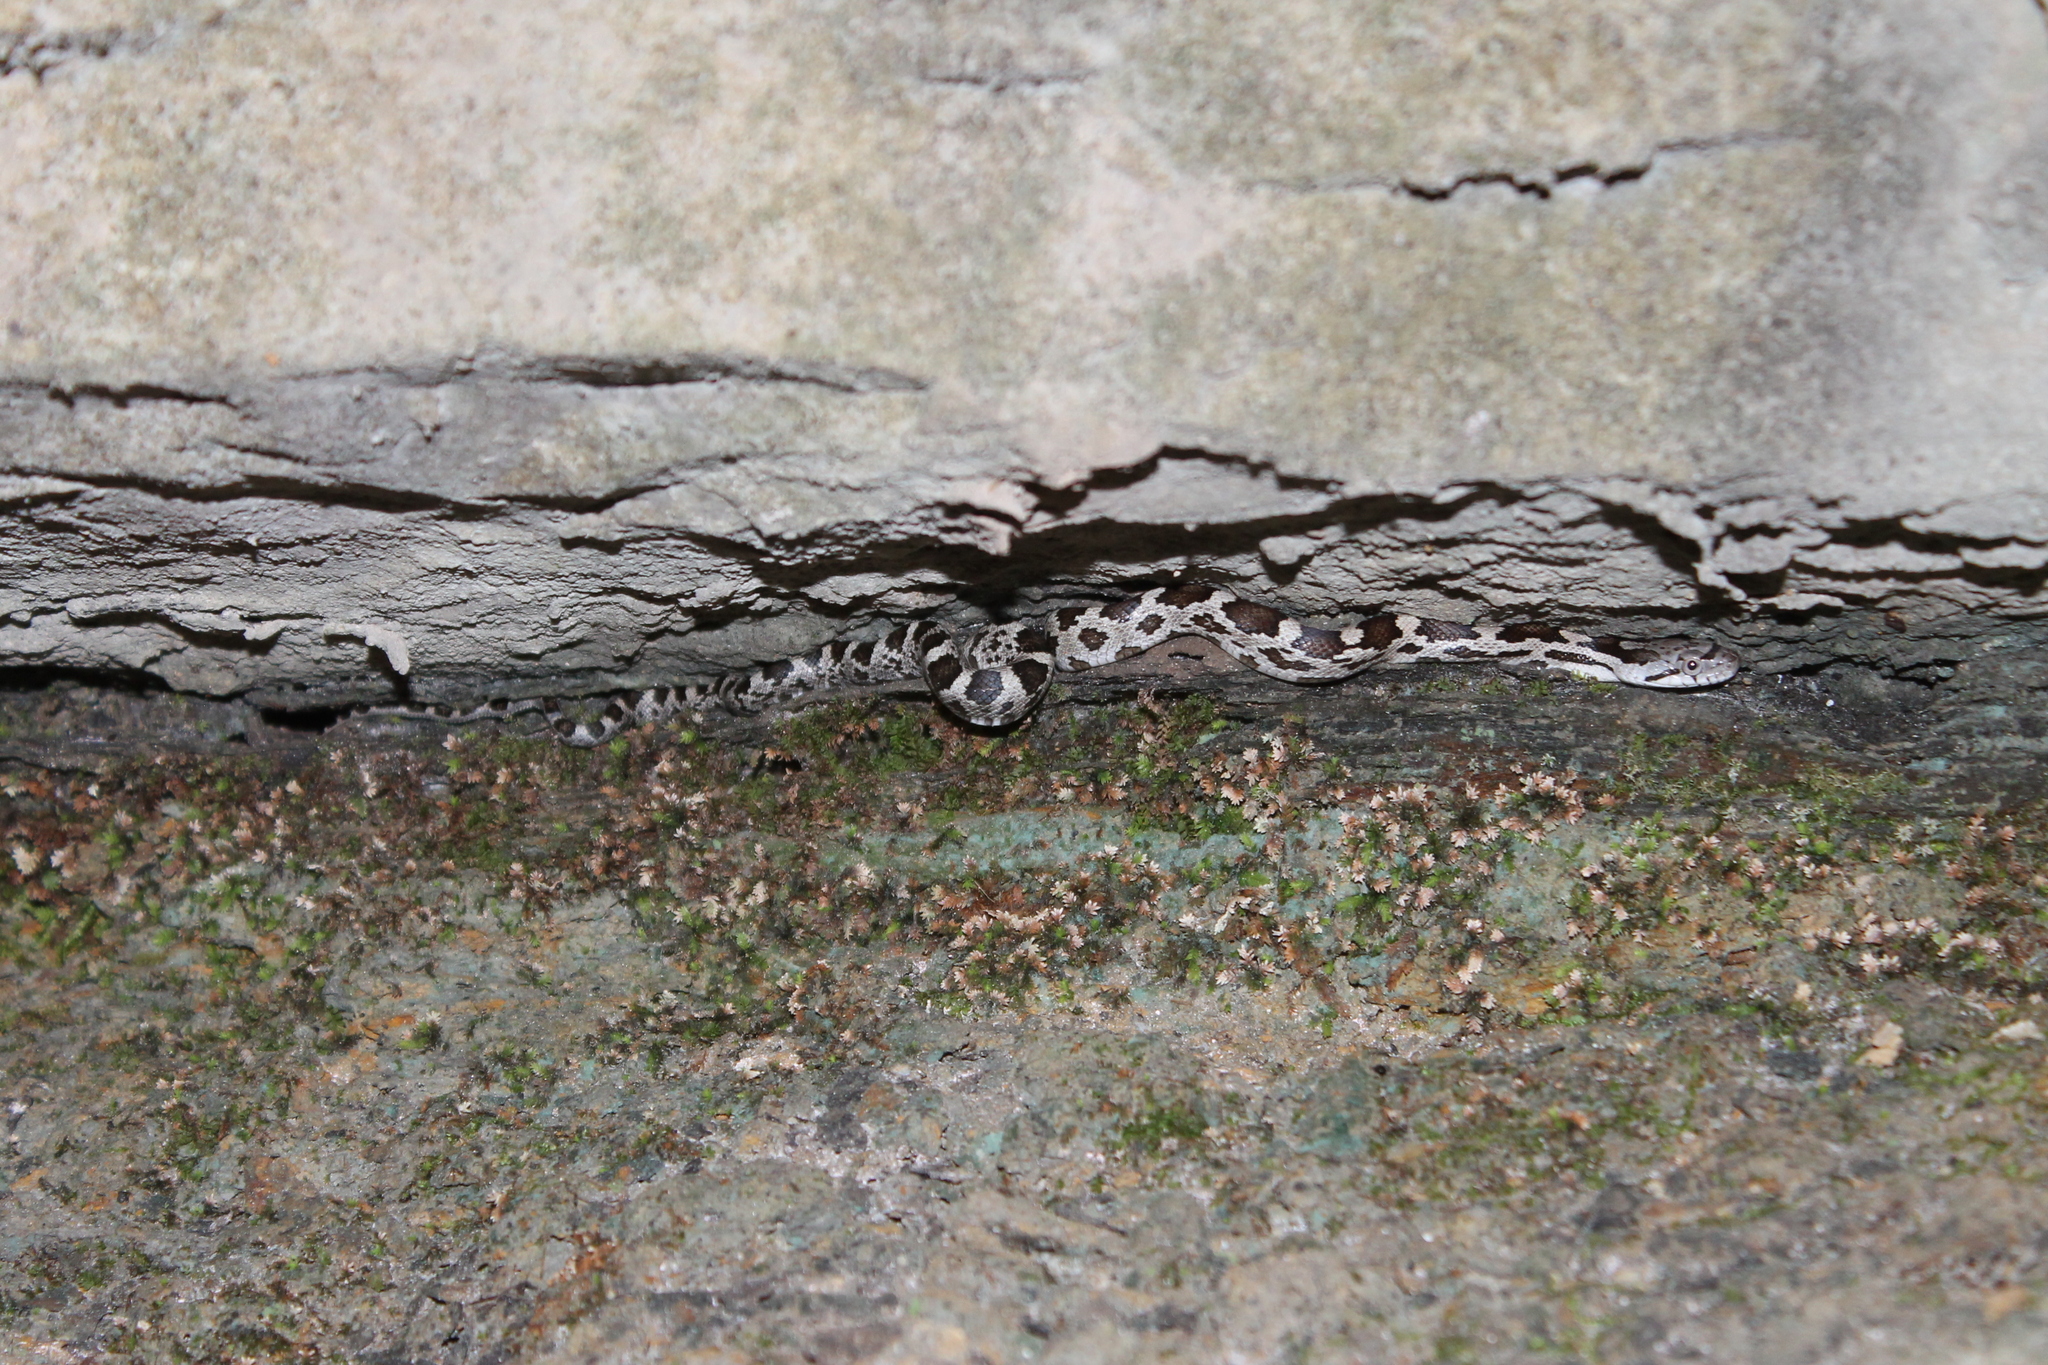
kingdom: Animalia
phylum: Chordata
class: Squamata
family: Colubridae
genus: Pantherophis
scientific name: Pantherophis spiloides
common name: Gray rat snake
